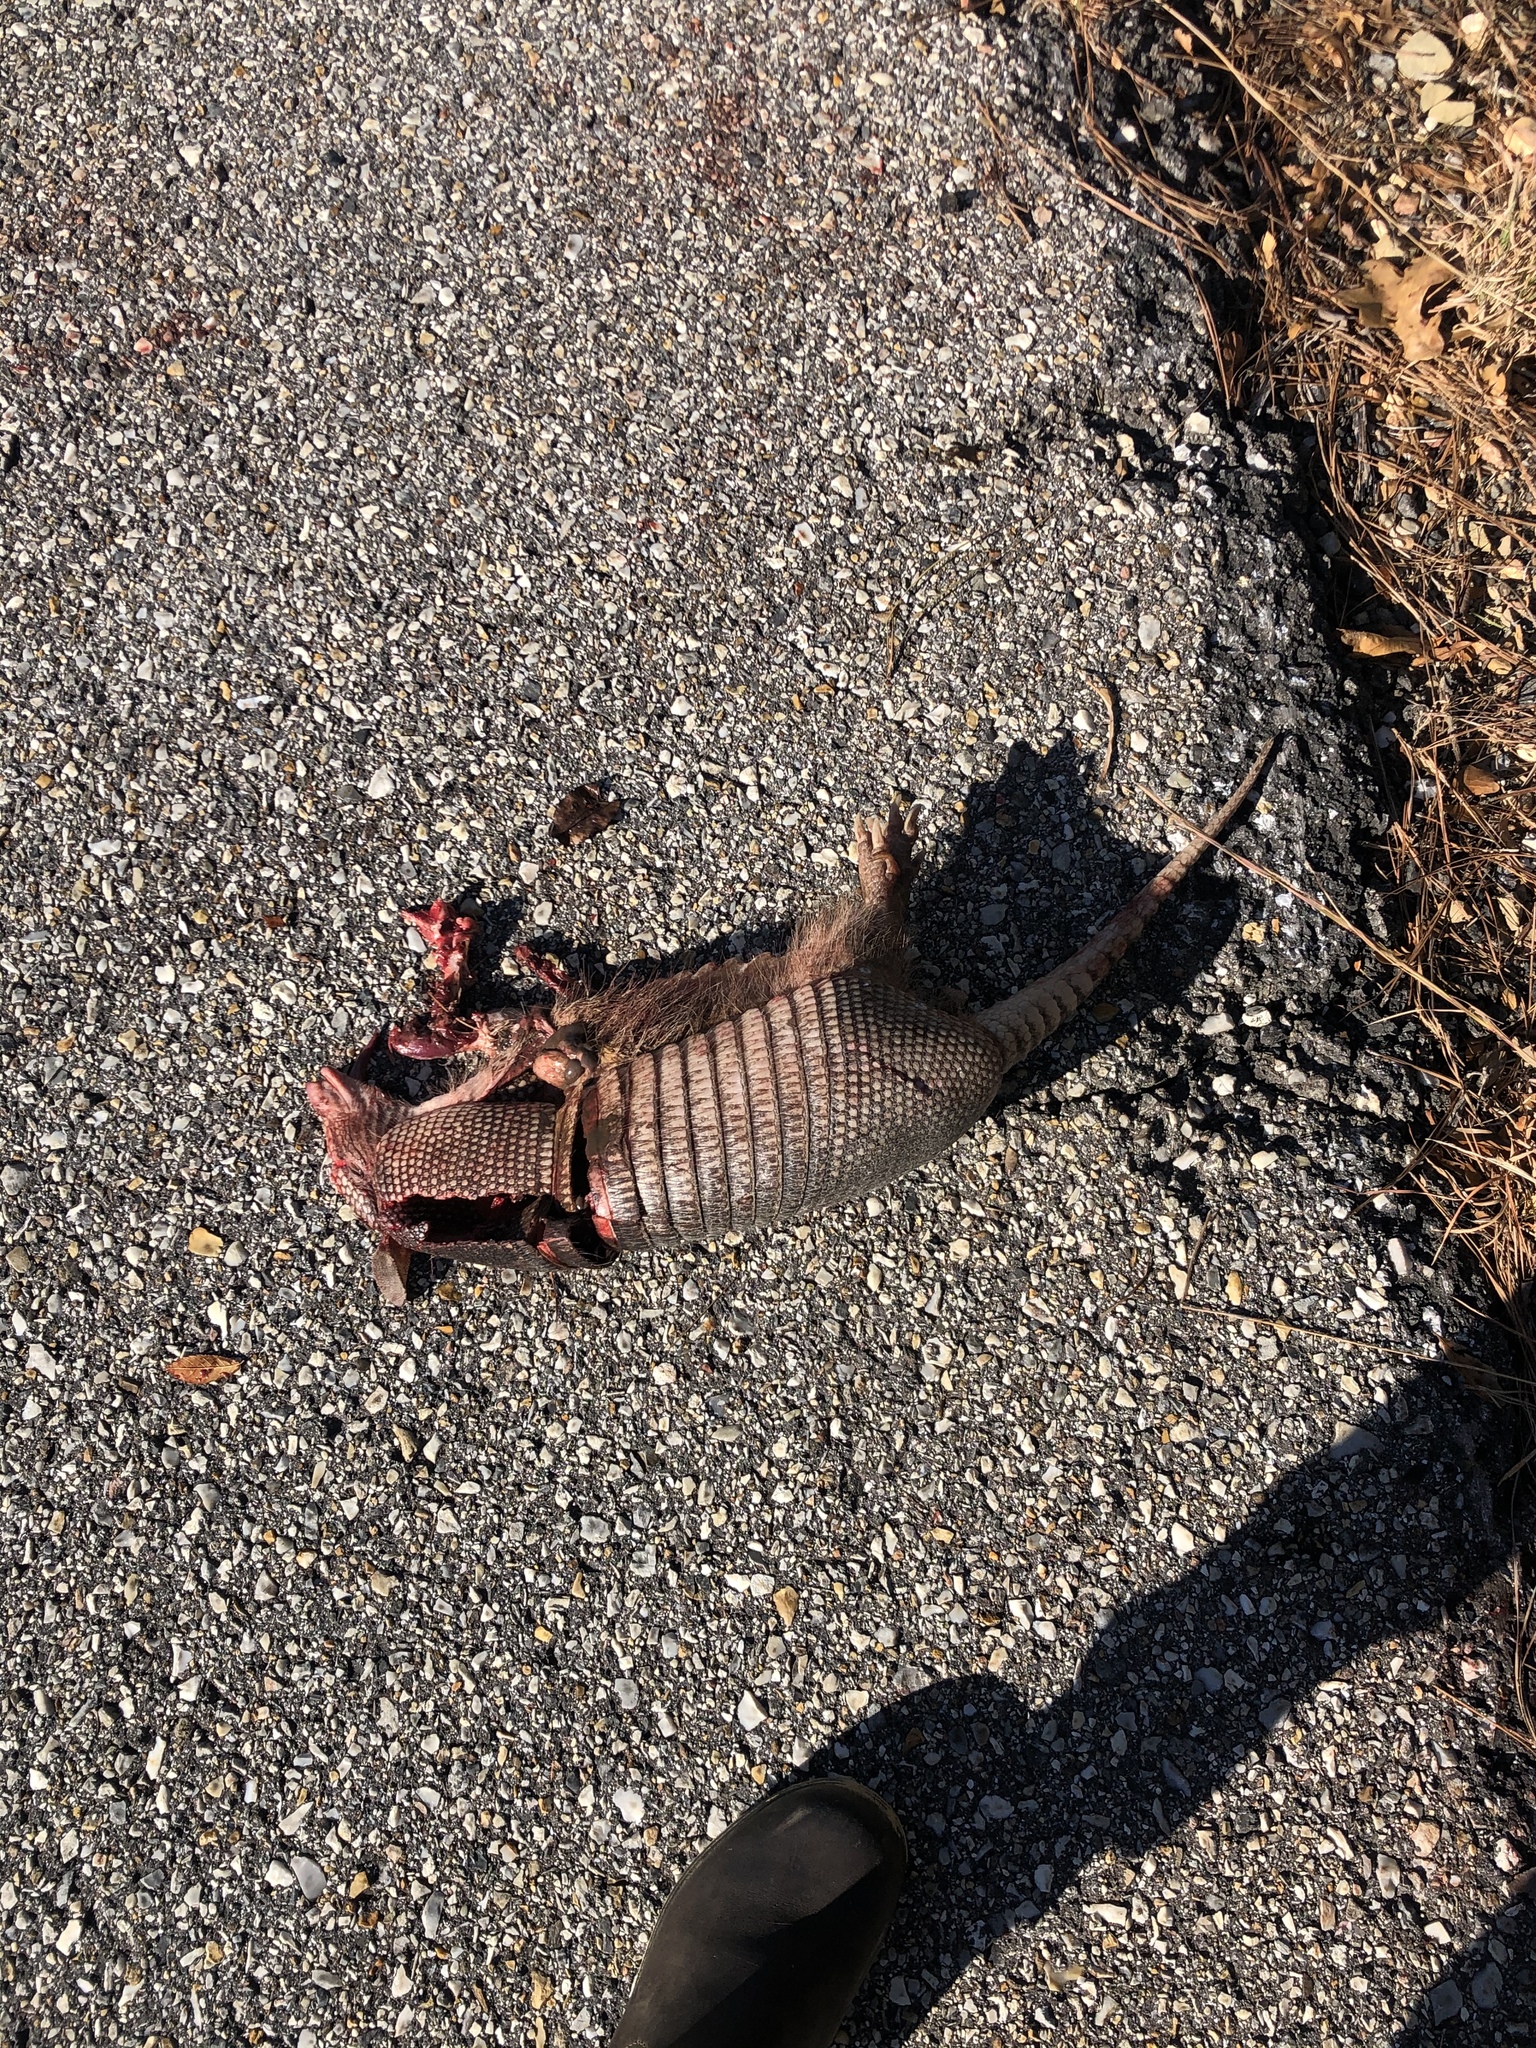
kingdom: Animalia
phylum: Chordata
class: Mammalia
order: Cingulata
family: Dasypodidae
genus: Dasypus
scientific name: Dasypus novemcinctus
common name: Nine-banded armadillo
